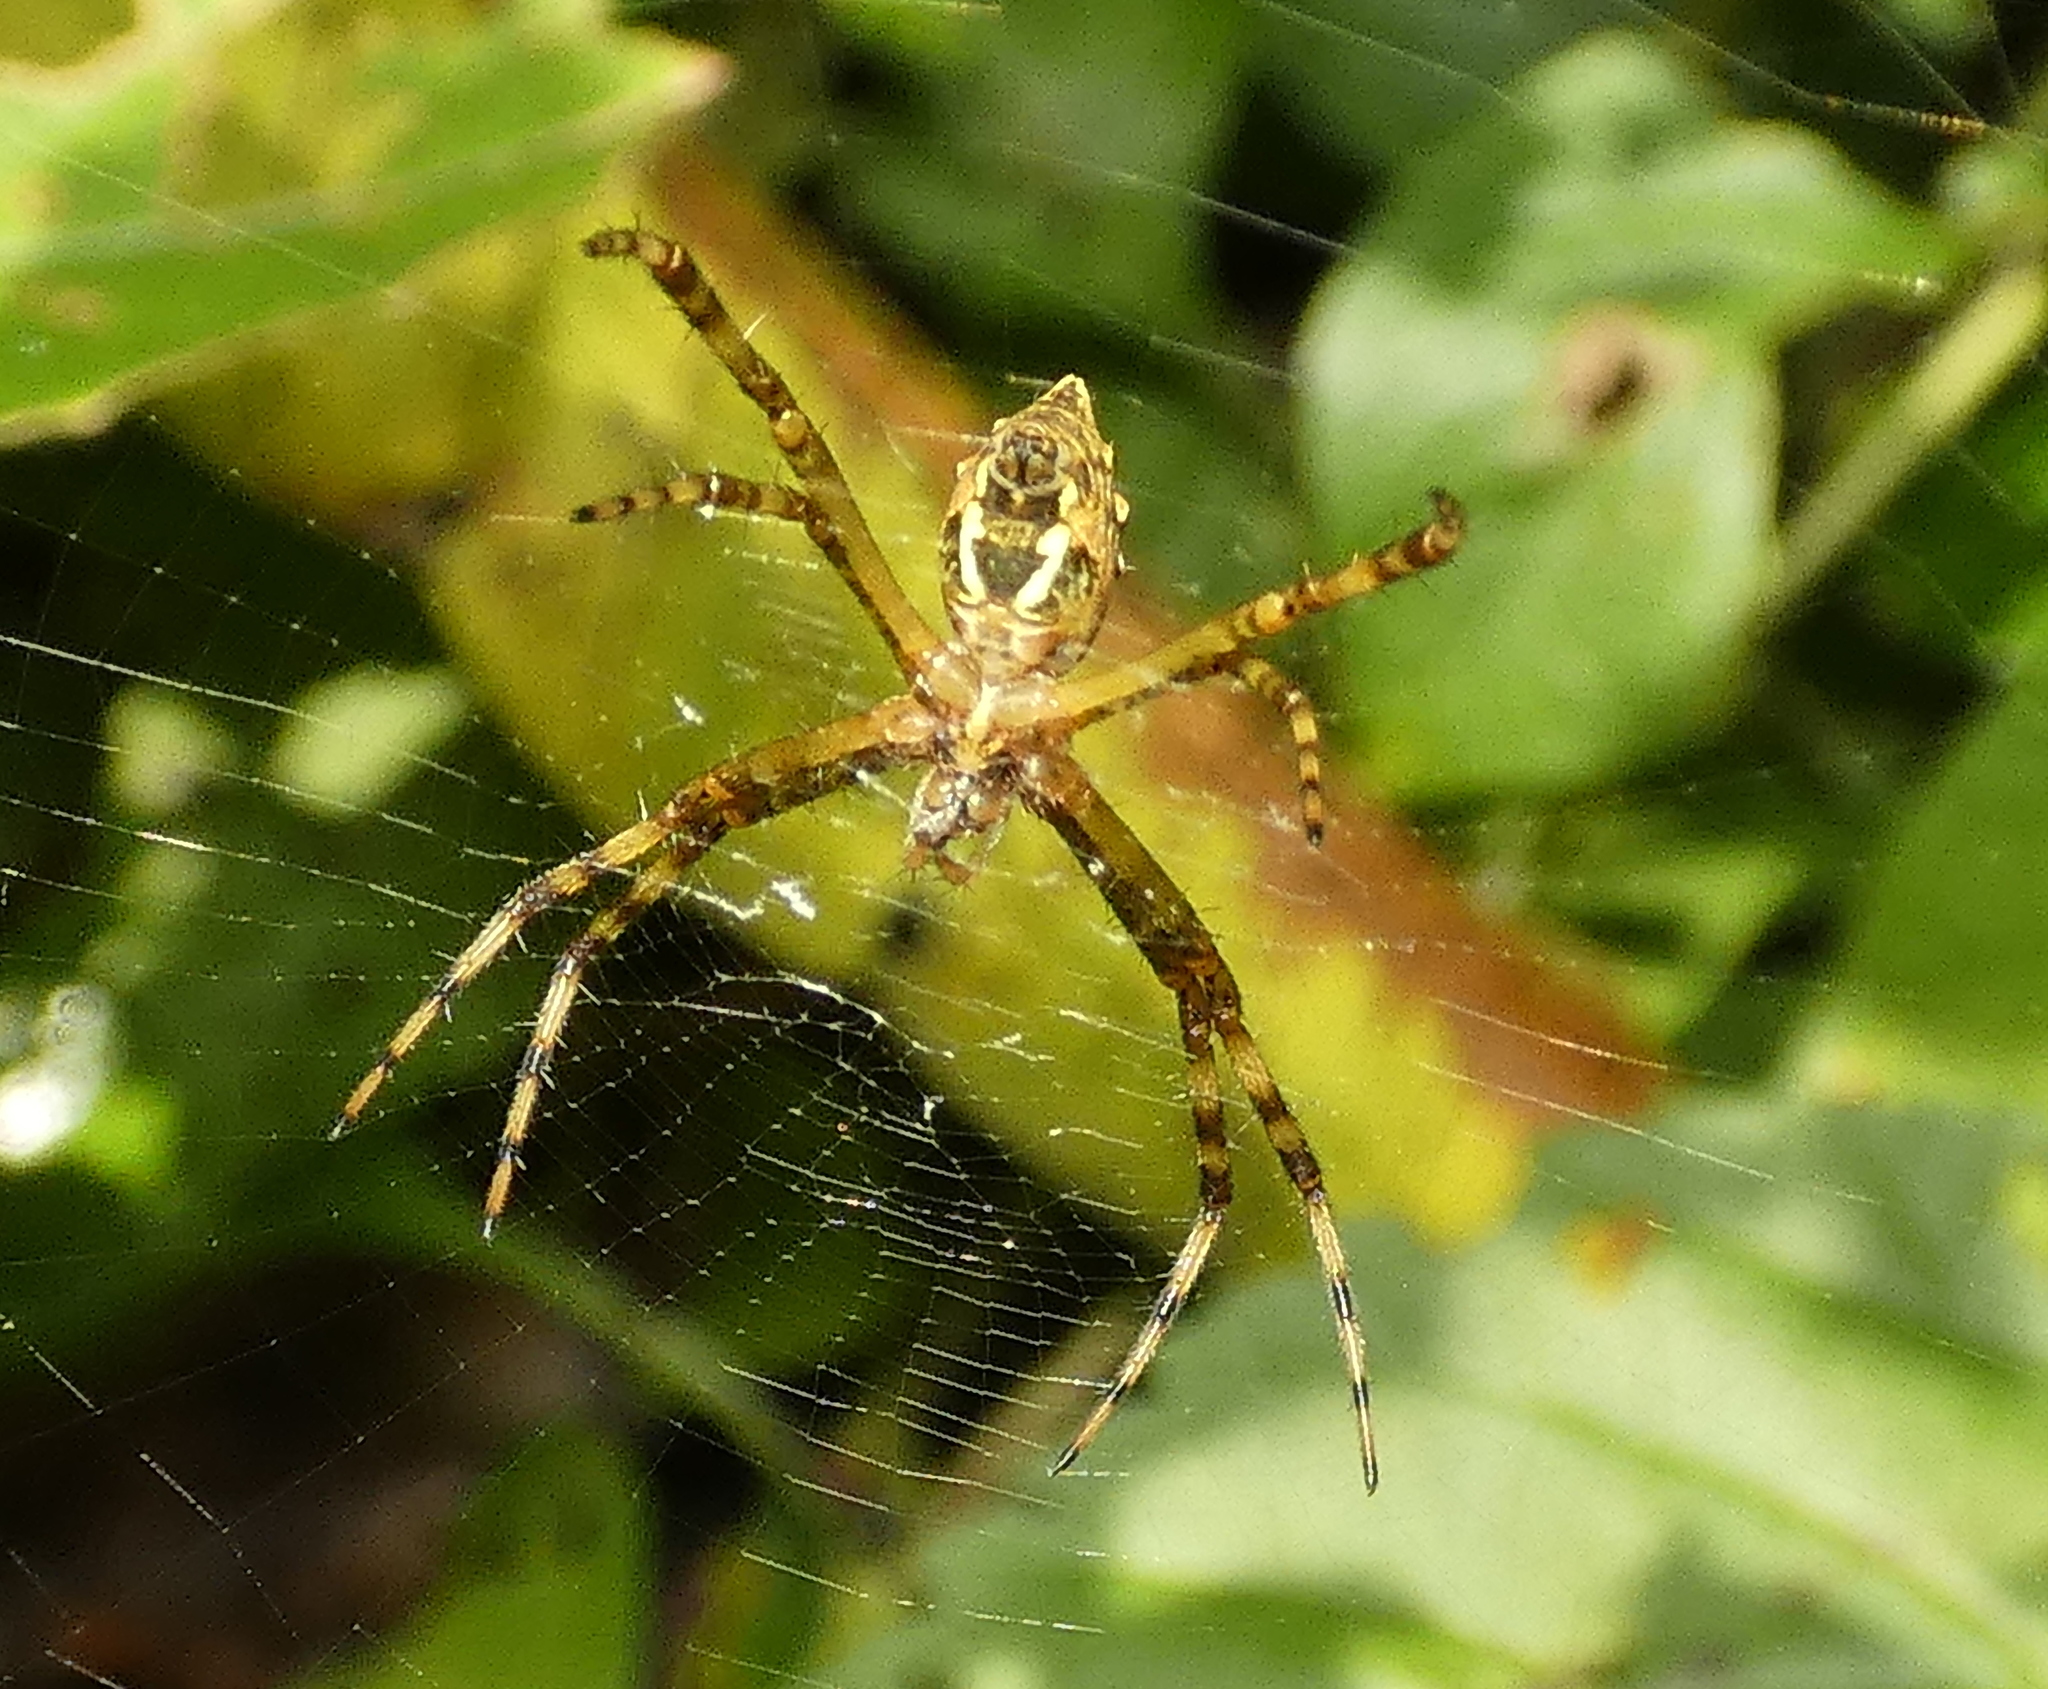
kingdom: Animalia
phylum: Arthropoda
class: Arachnida
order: Araneae
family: Araneidae
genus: Argiope
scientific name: Argiope argentata
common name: Orb weavers
